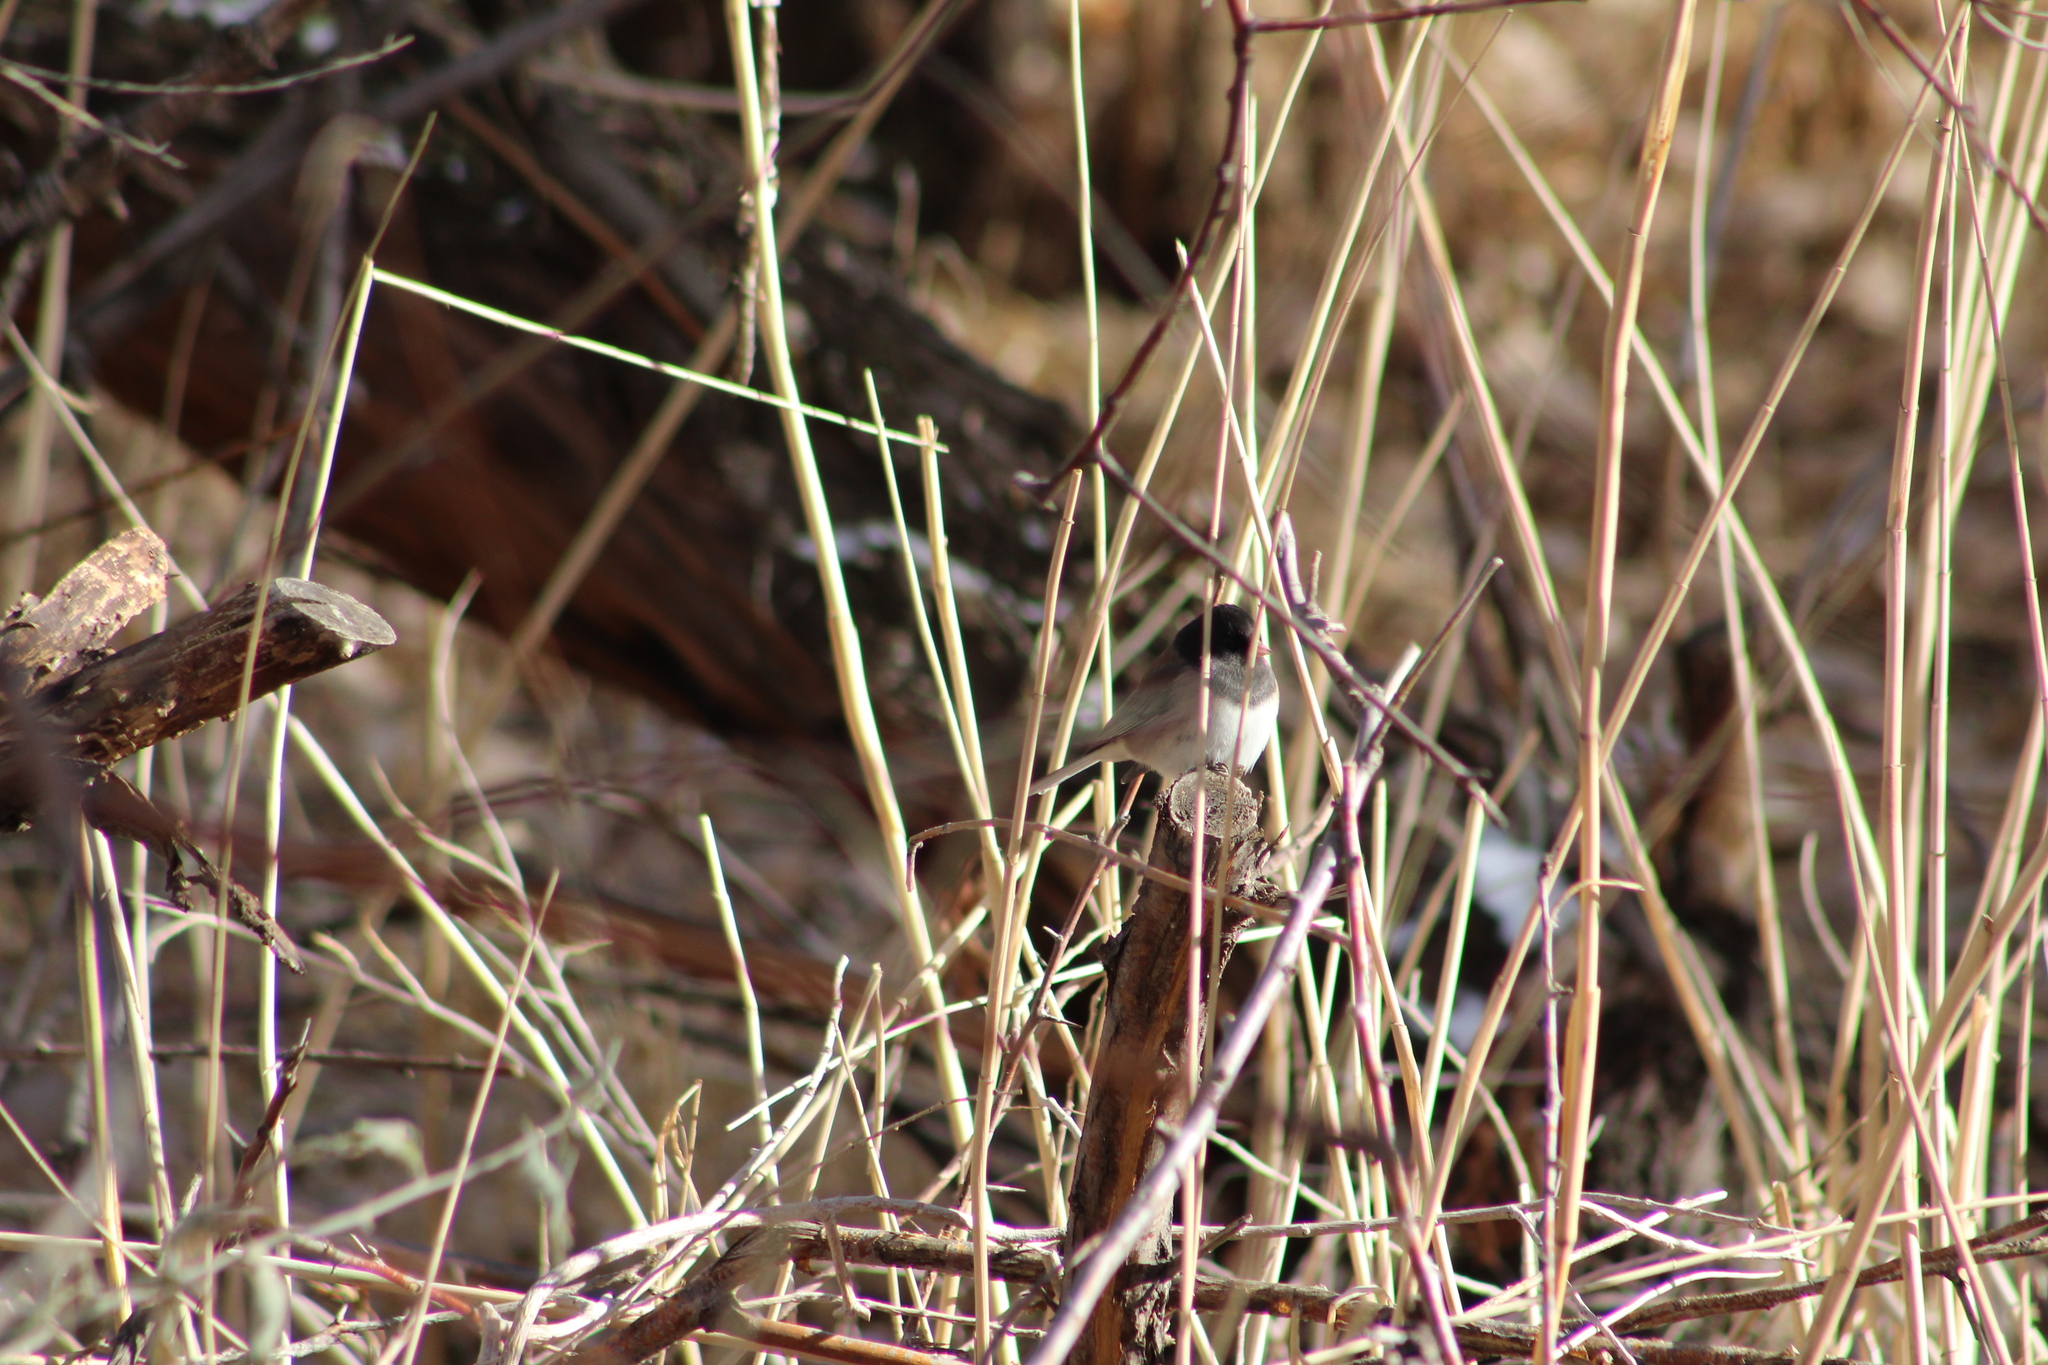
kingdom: Animalia
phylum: Chordata
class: Aves
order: Passeriformes
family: Passerellidae
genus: Junco
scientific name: Junco hyemalis
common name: Dark-eyed junco
